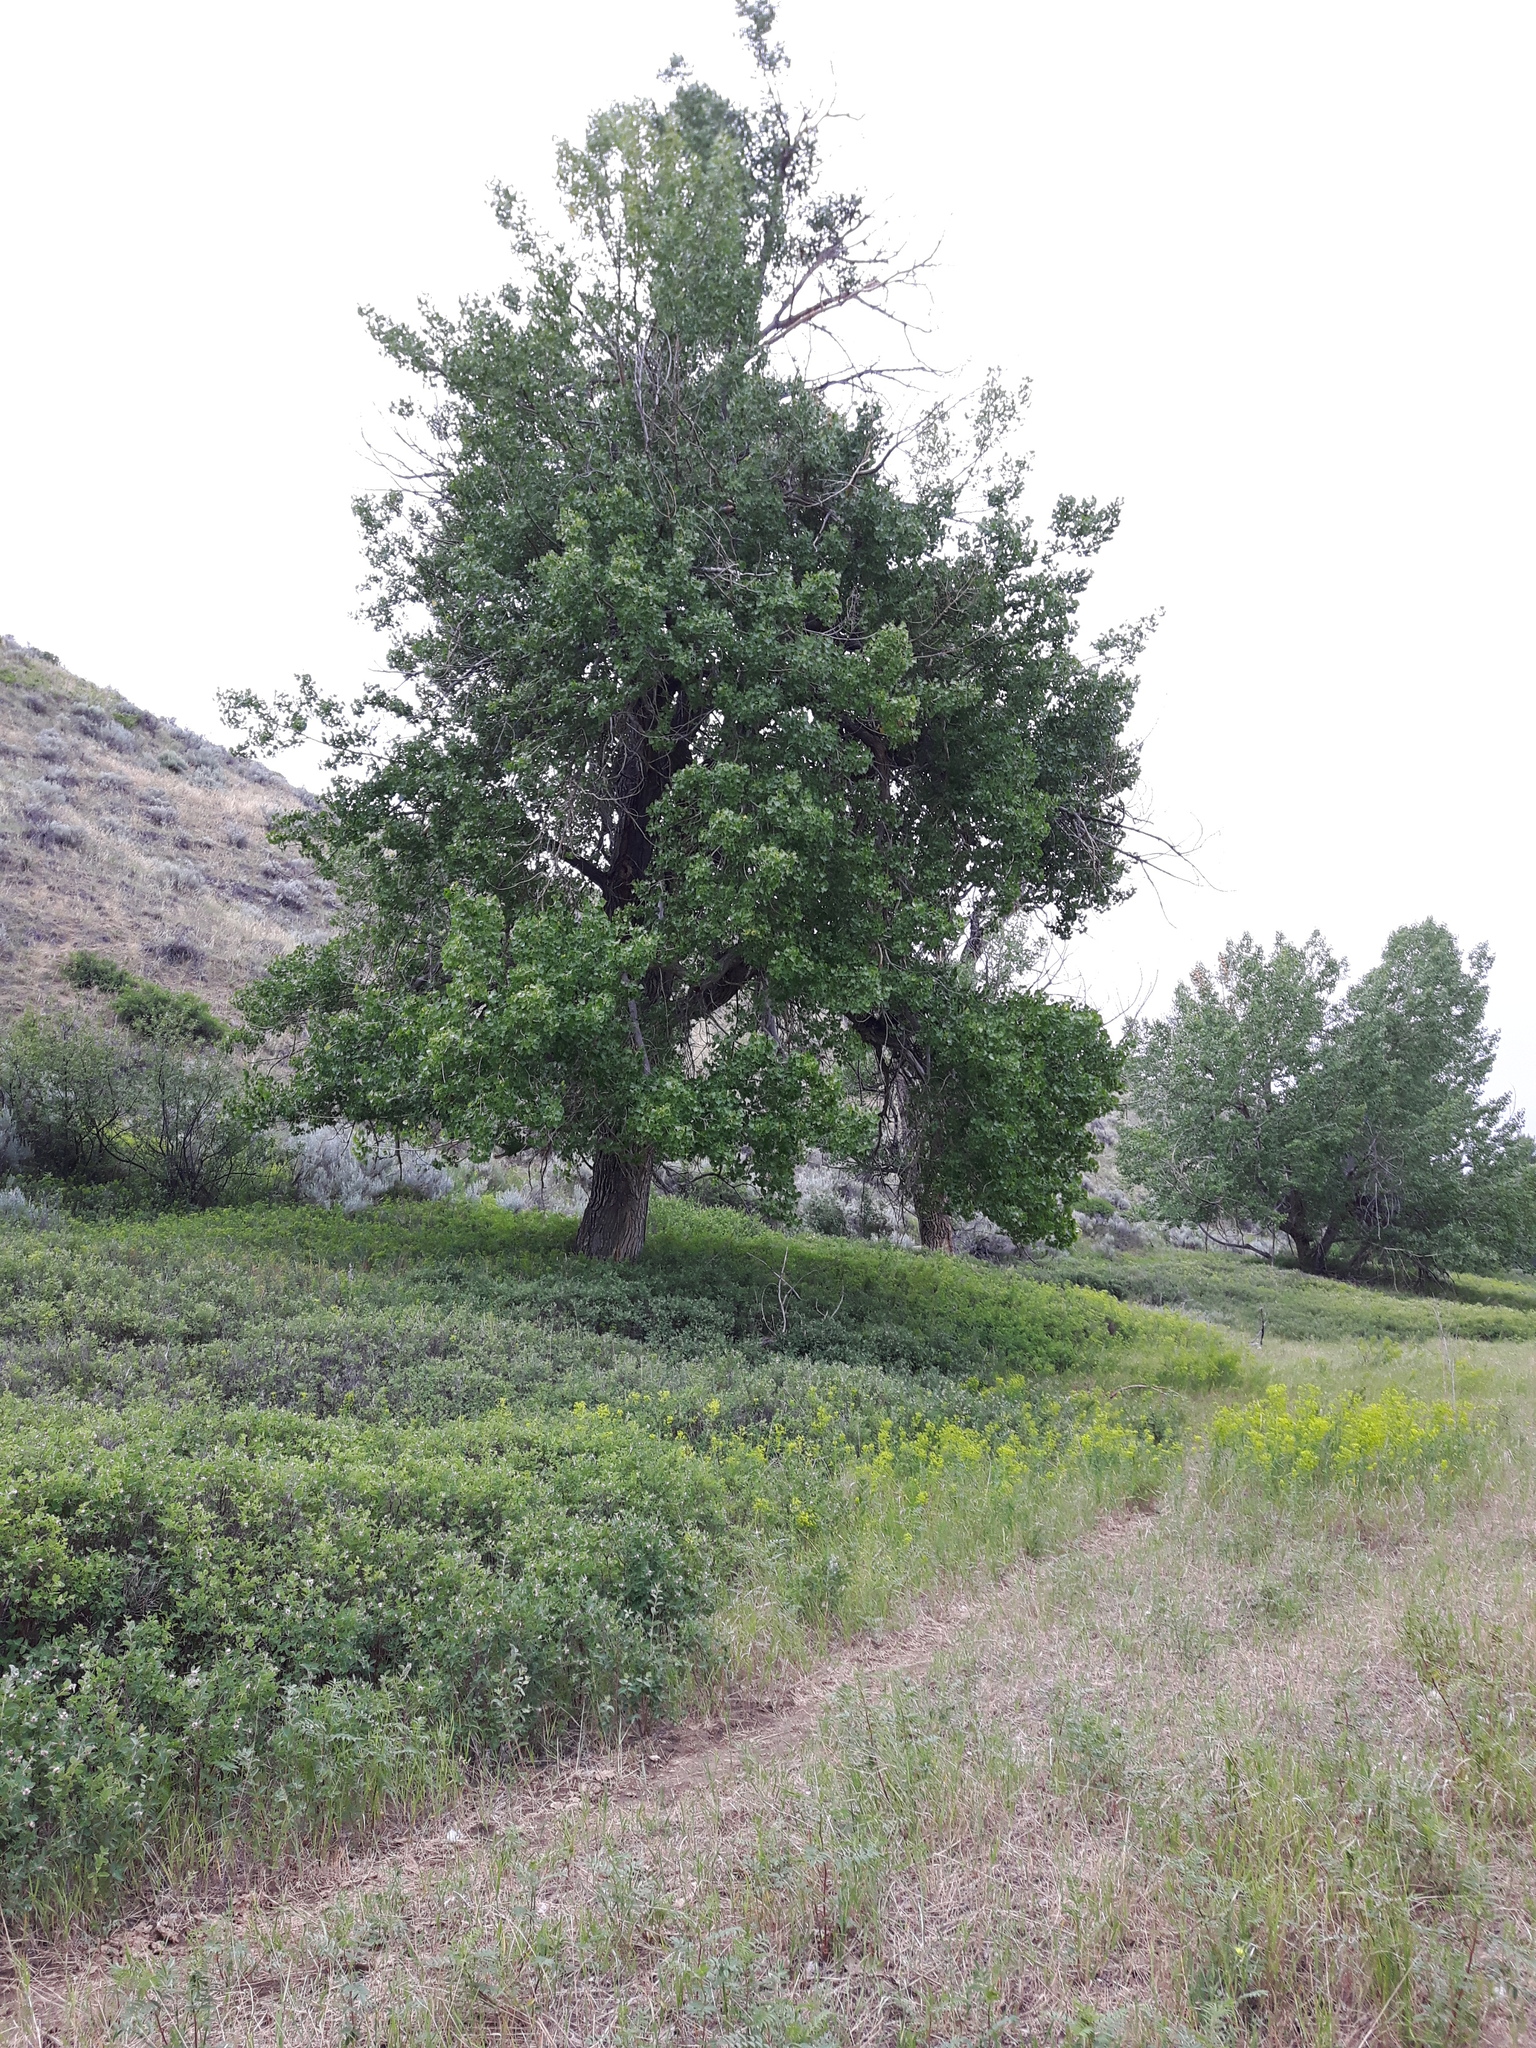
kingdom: Plantae
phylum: Tracheophyta
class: Magnoliopsida
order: Malpighiales
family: Salicaceae
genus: Populus
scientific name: Populus deltoides
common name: Eastern cottonwood
